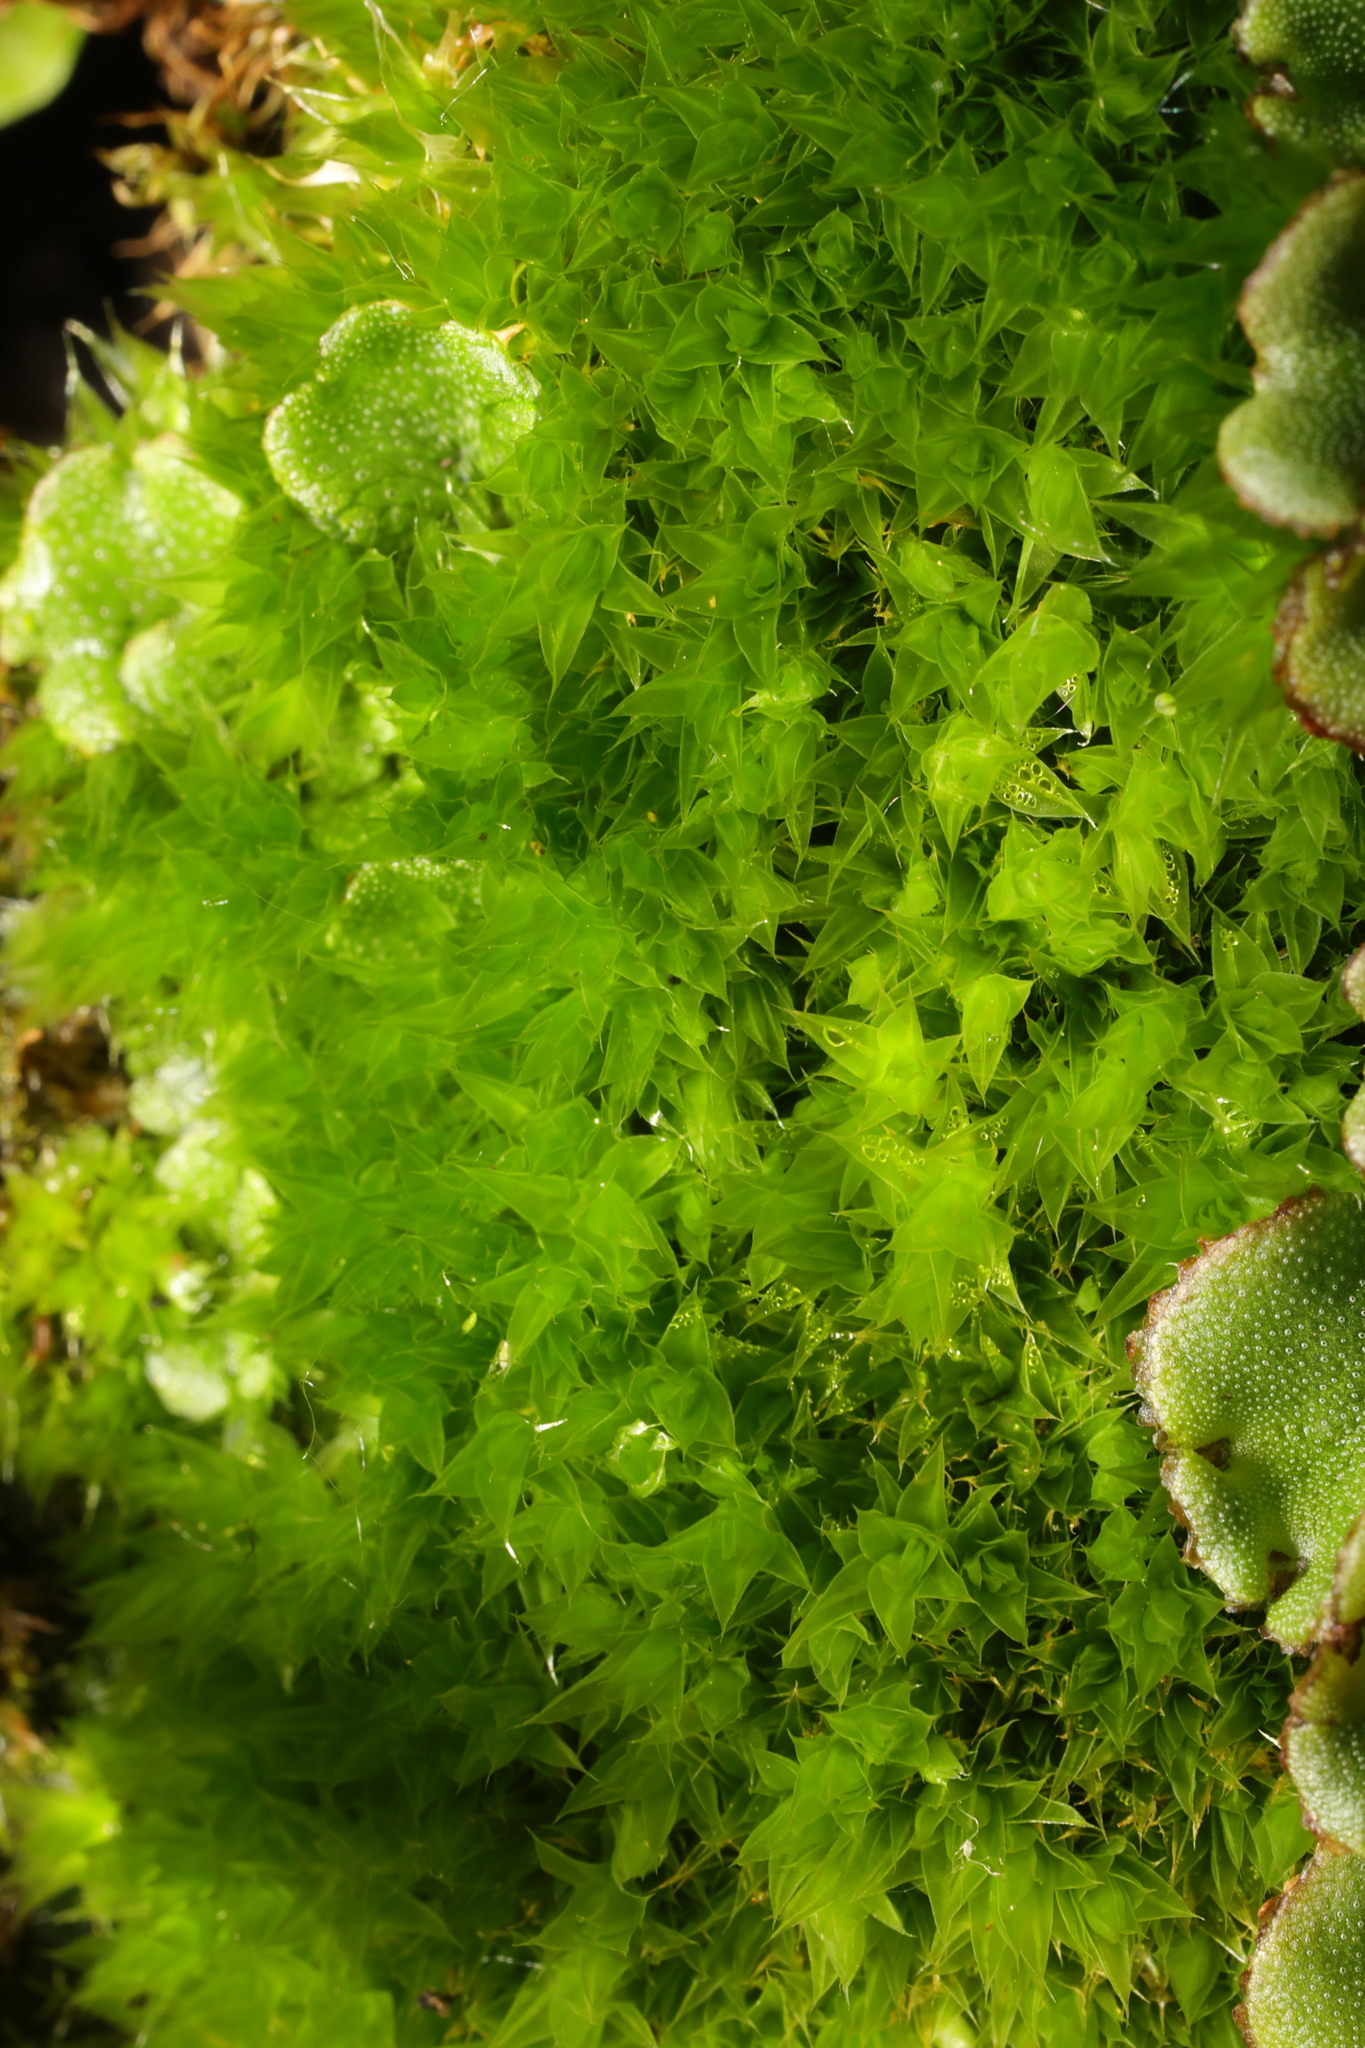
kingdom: Plantae
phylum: Bryophyta
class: Bryopsida
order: Bryales
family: Bryaceae
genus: Rosulabryum
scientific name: Rosulabryum capillare
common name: Capillary thread-moss
